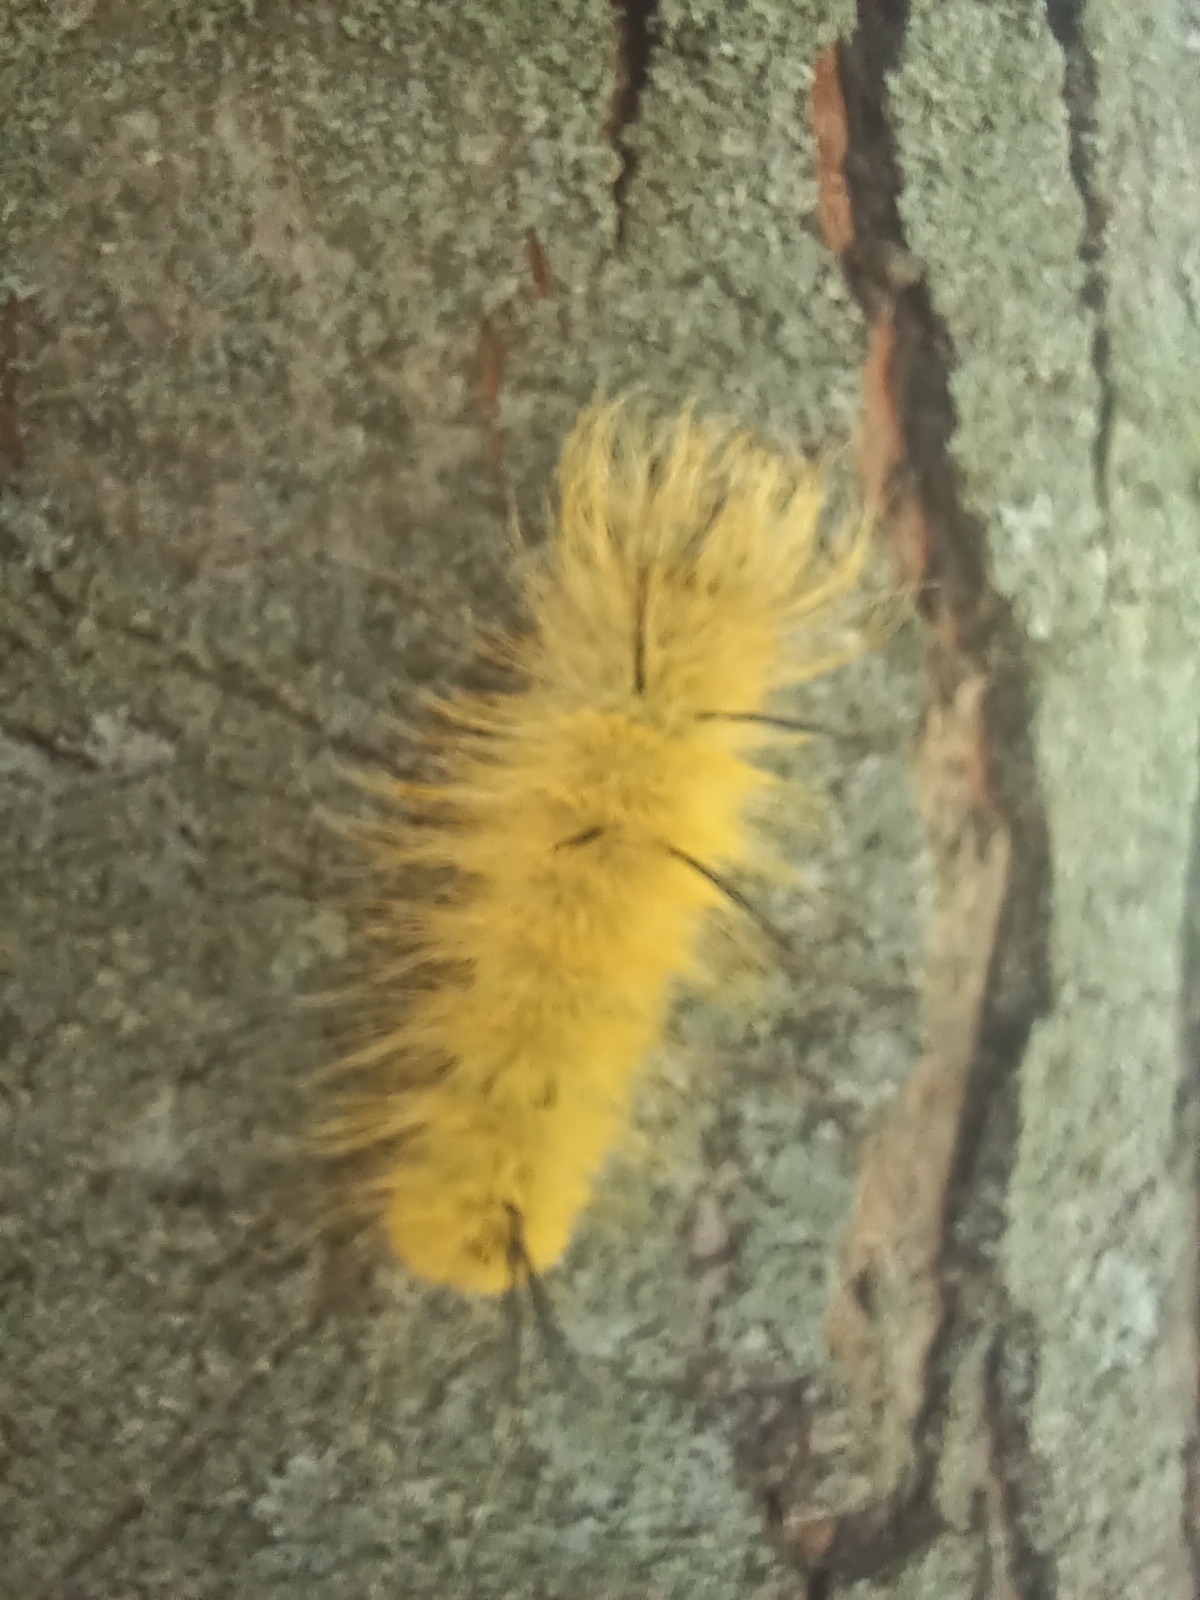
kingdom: Animalia
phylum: Arthropoda
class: Insecta
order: Lepidoptera
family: Noctuidae
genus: Acronicta
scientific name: Acronicta americana
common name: American dagger
